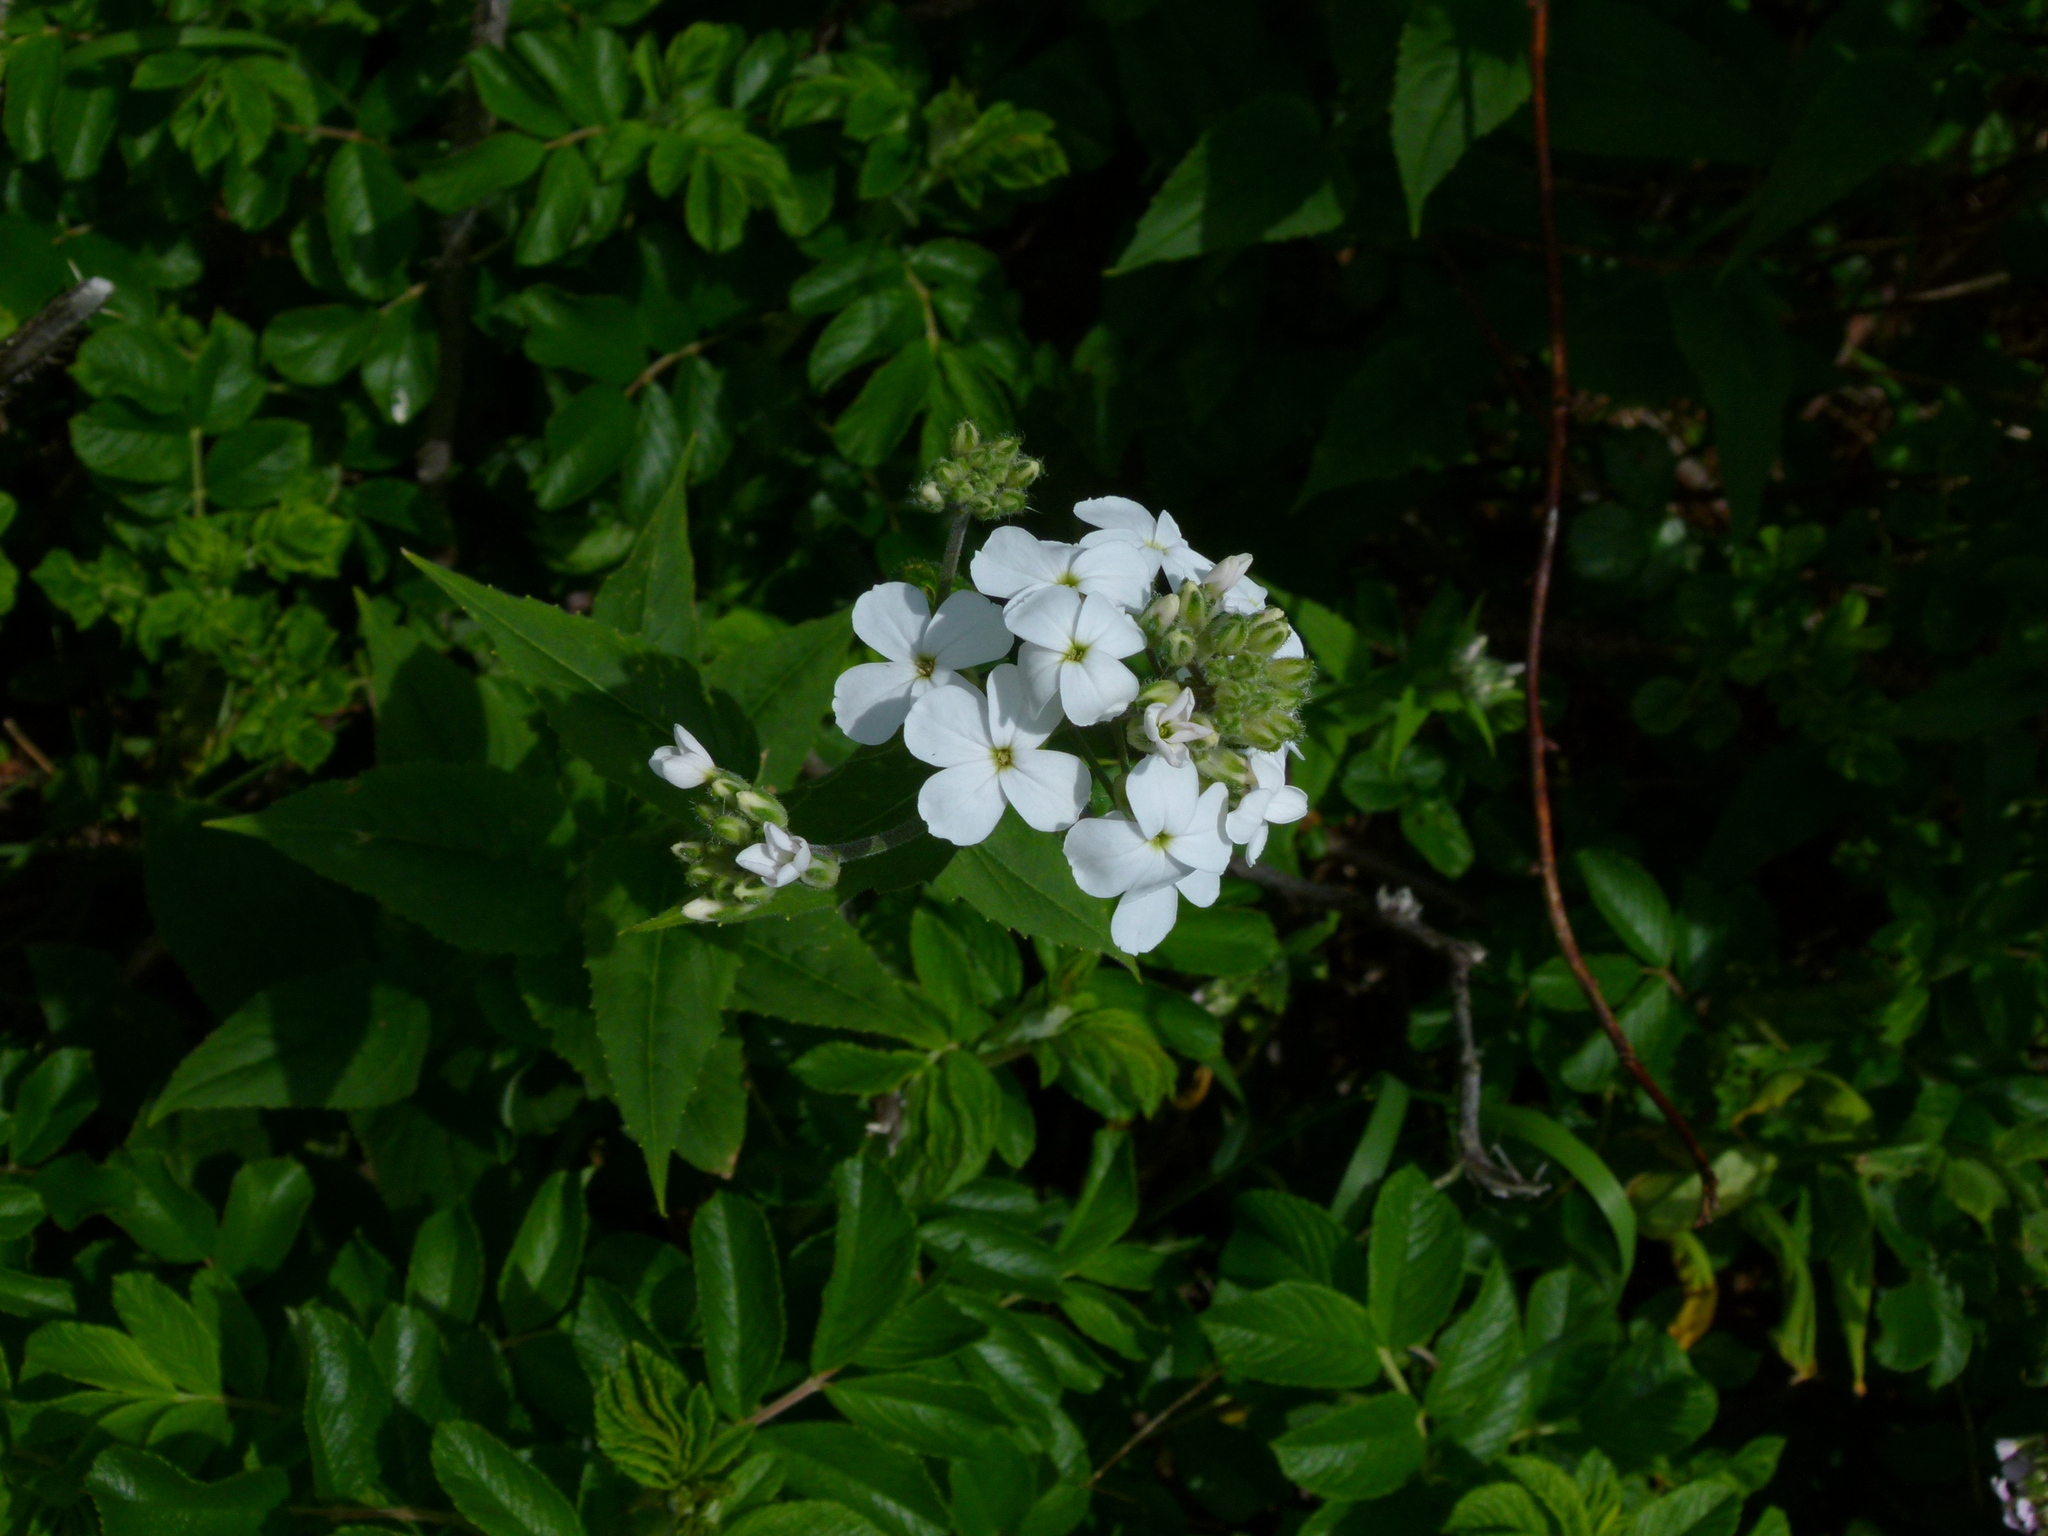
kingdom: Plantae
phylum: Tracheophyta
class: Magnoliopsida
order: Brassicales
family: Brassicaceae
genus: Hesperis
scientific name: Hesperis matronalis
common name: Dame's-violet
